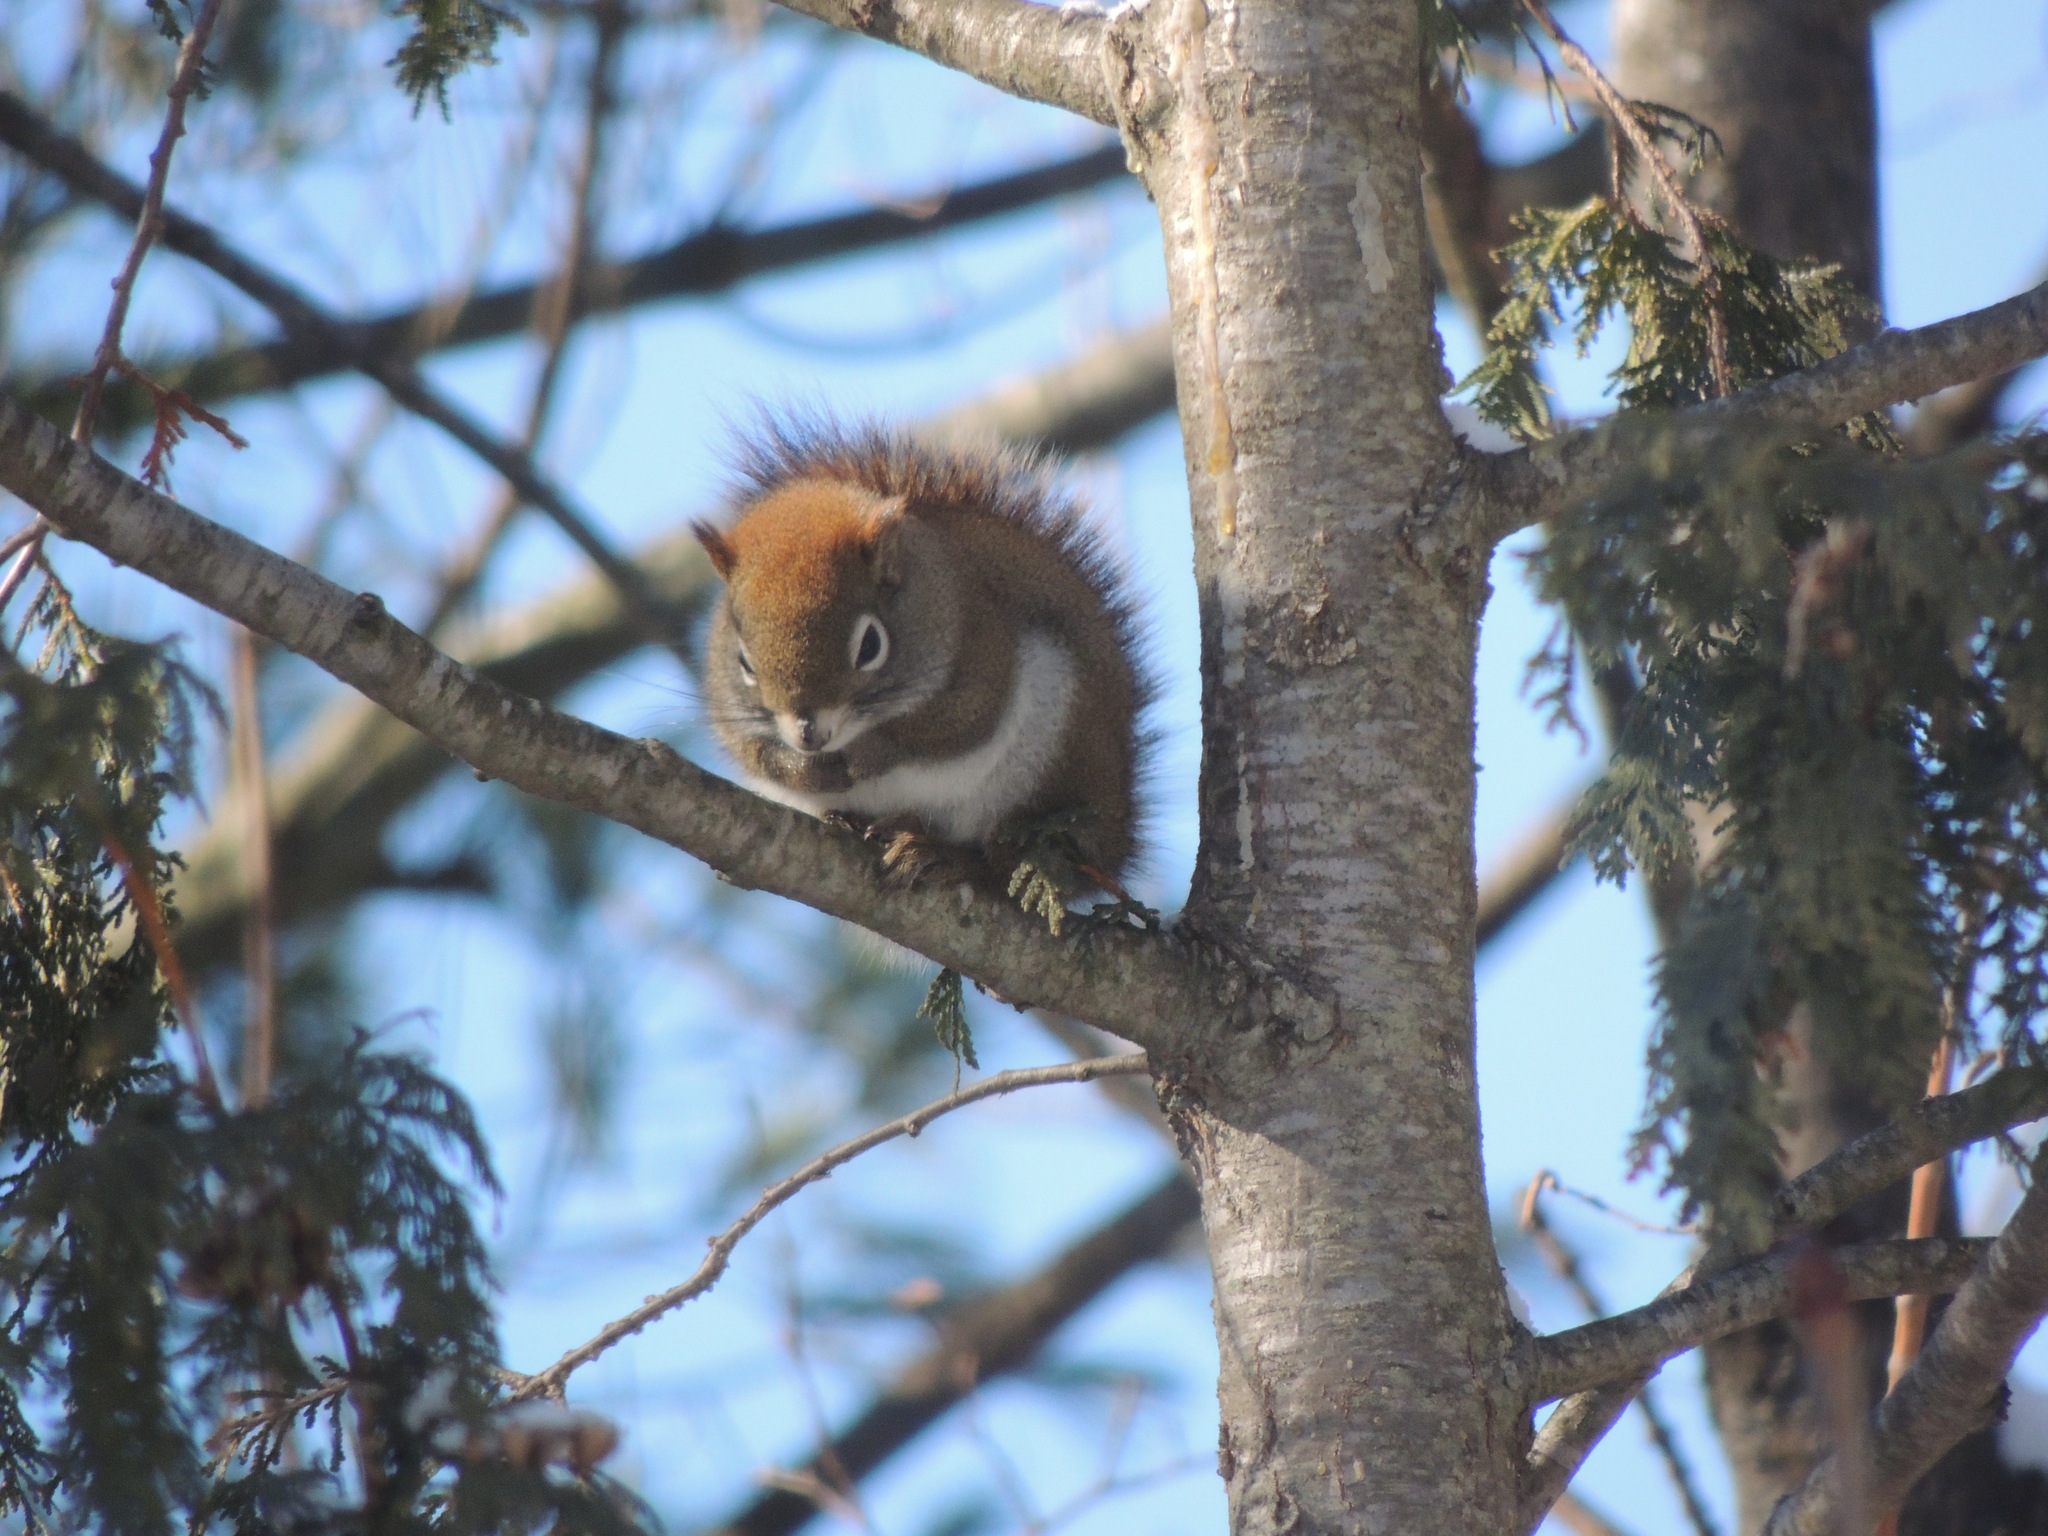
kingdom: Animalia
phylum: Chordata
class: Mammalia
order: Rodentia
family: Sciuridae
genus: Tamiasciurus
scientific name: Tamiasciurus hudsonicus
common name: Red squirrel
